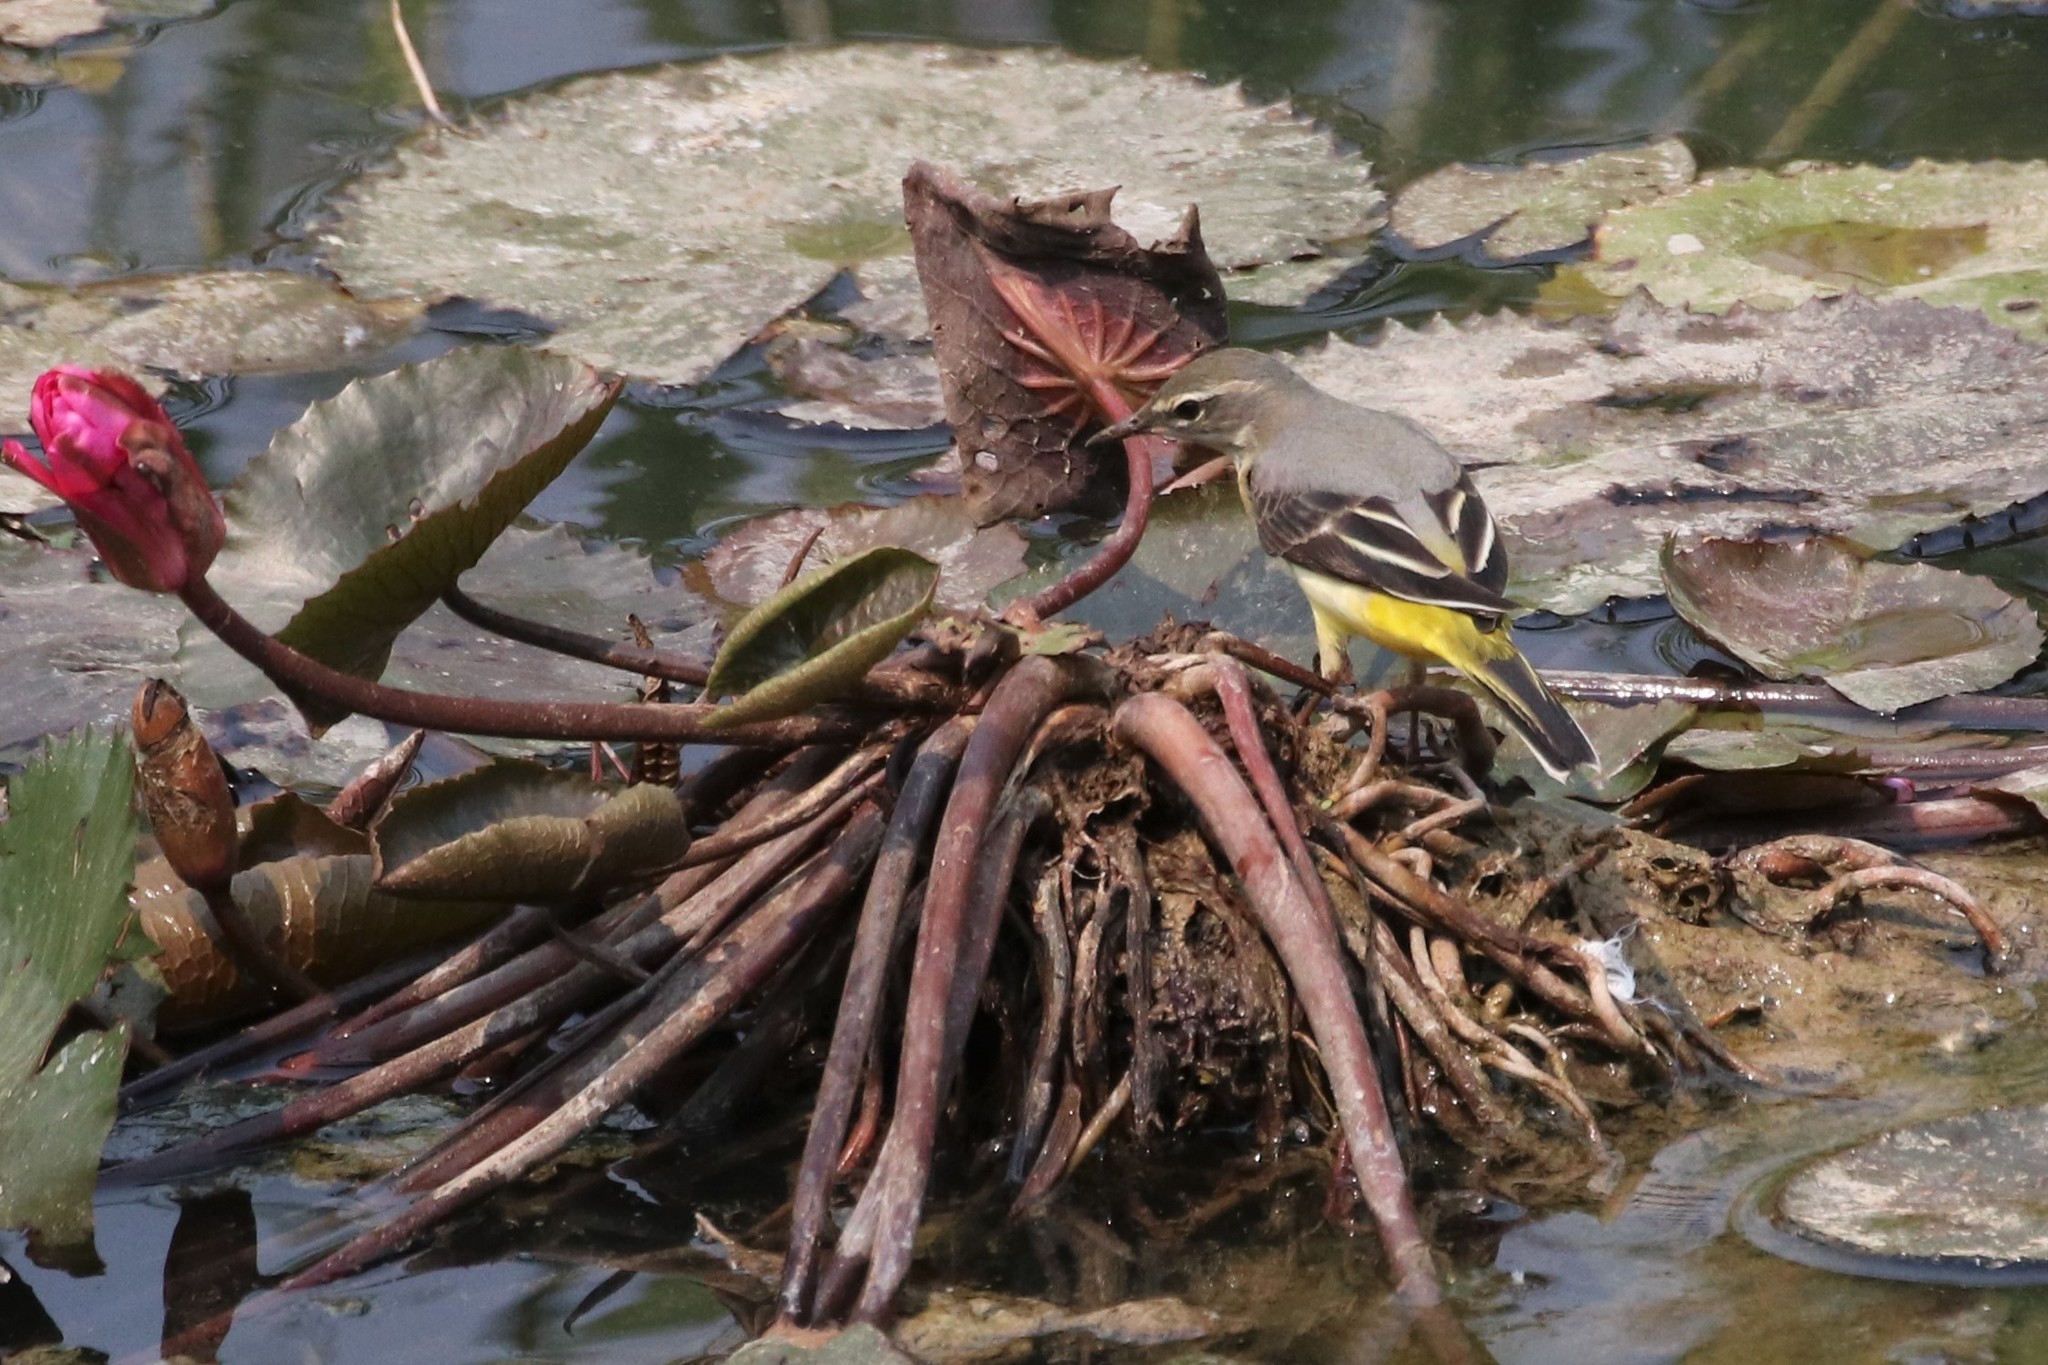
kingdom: Animalia
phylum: Chordata
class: Aves
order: Passeriformes
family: Motacillidae
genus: Motacilla
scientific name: Motacilla cinerea
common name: Grey wagtail
